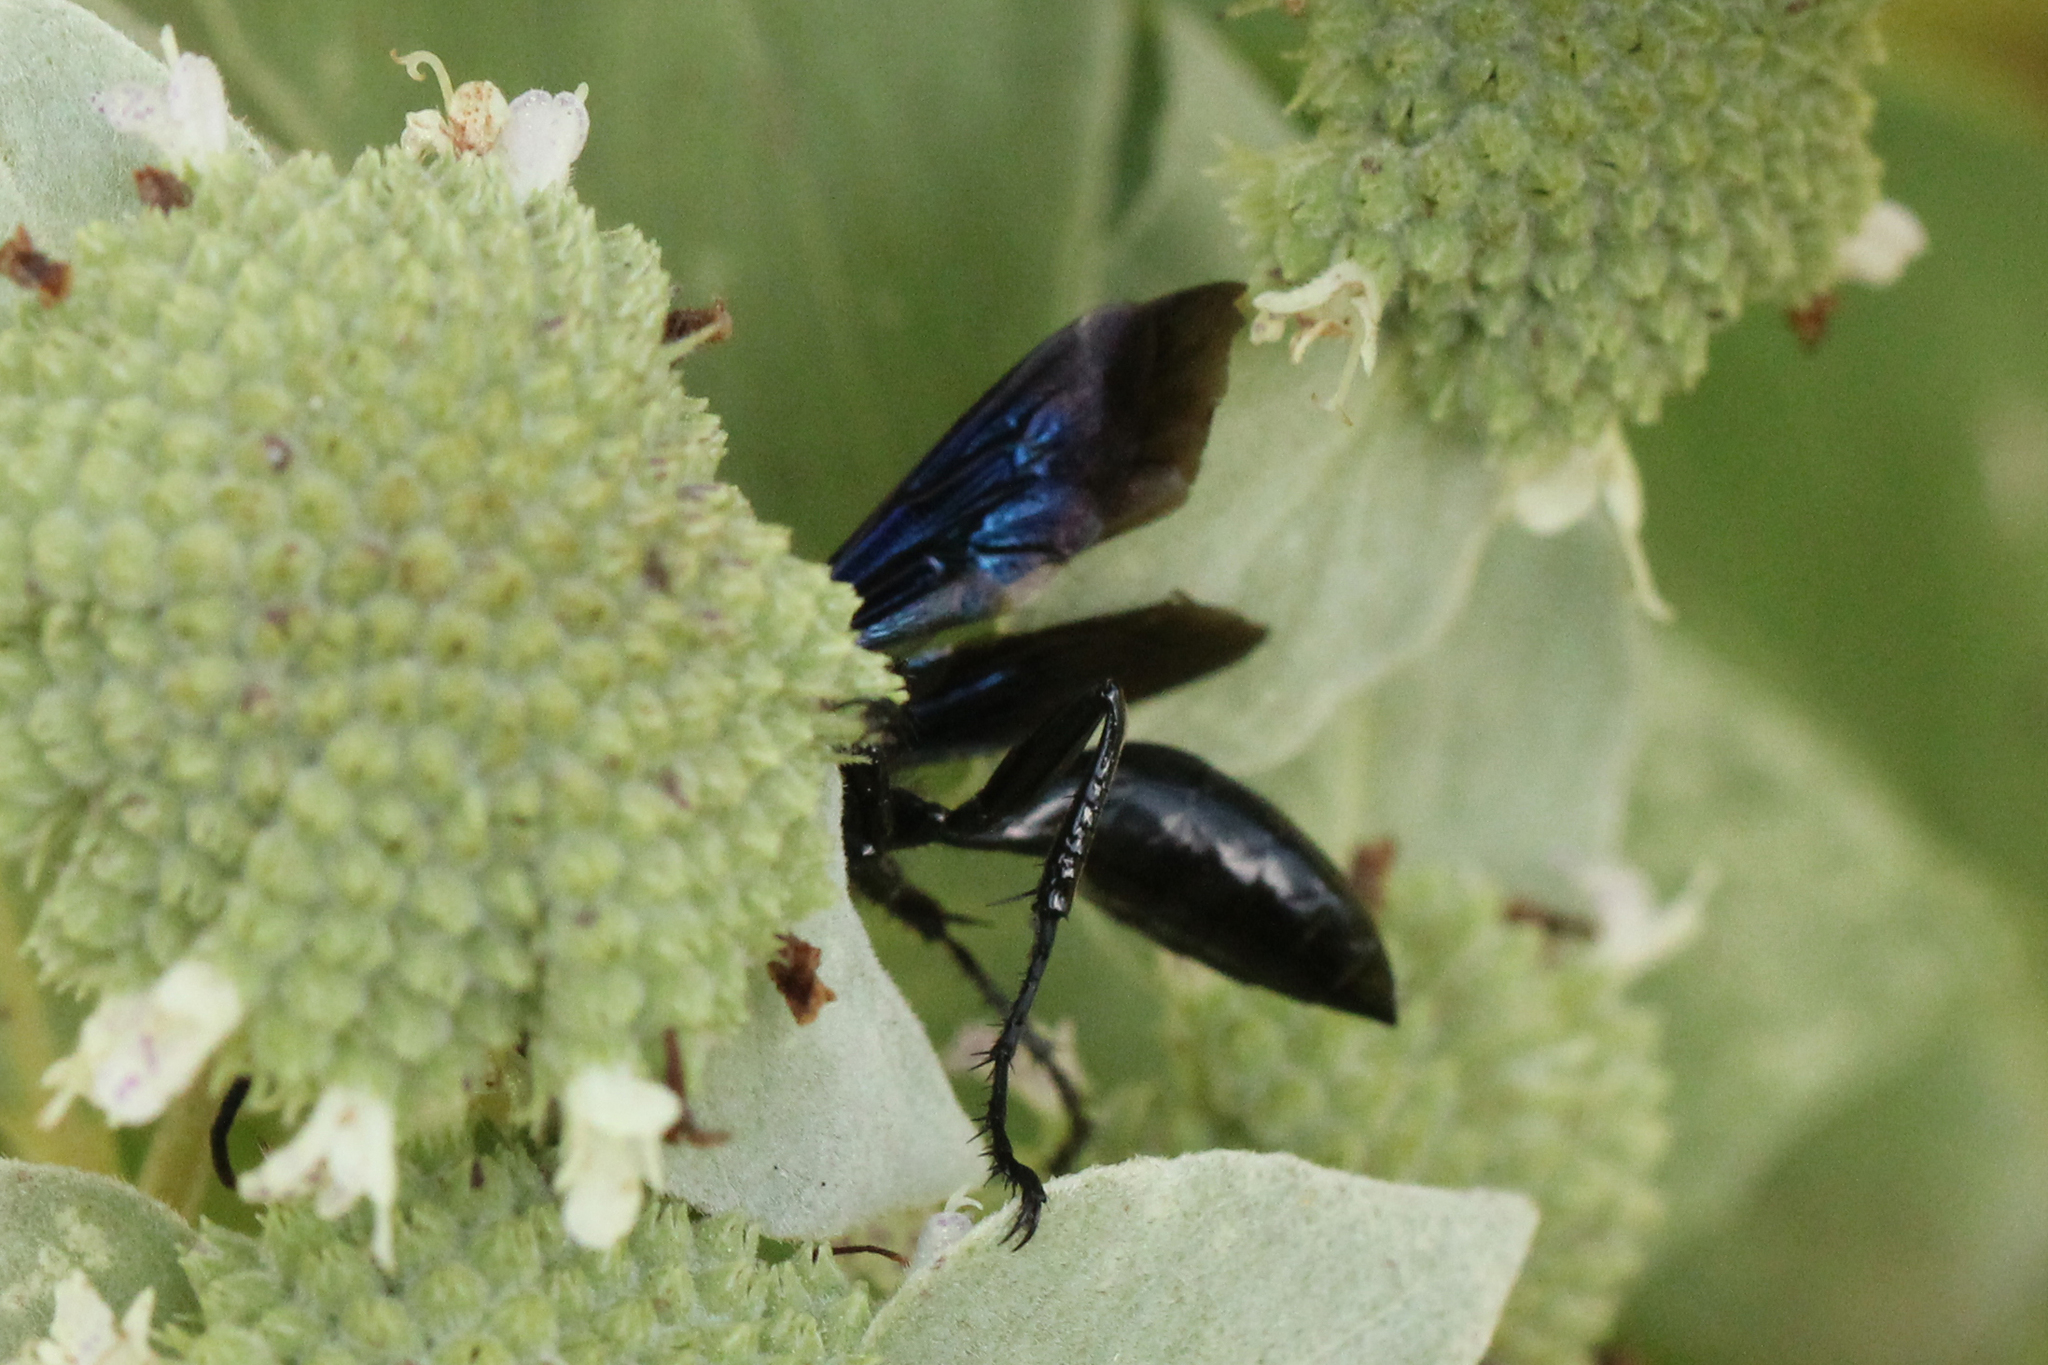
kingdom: Animalia
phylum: Arthropoda
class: Insecta
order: Hymenoptera
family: Sphecidae
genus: Sphex
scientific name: Sphex pensylvanicus
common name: Great black digger wasp
